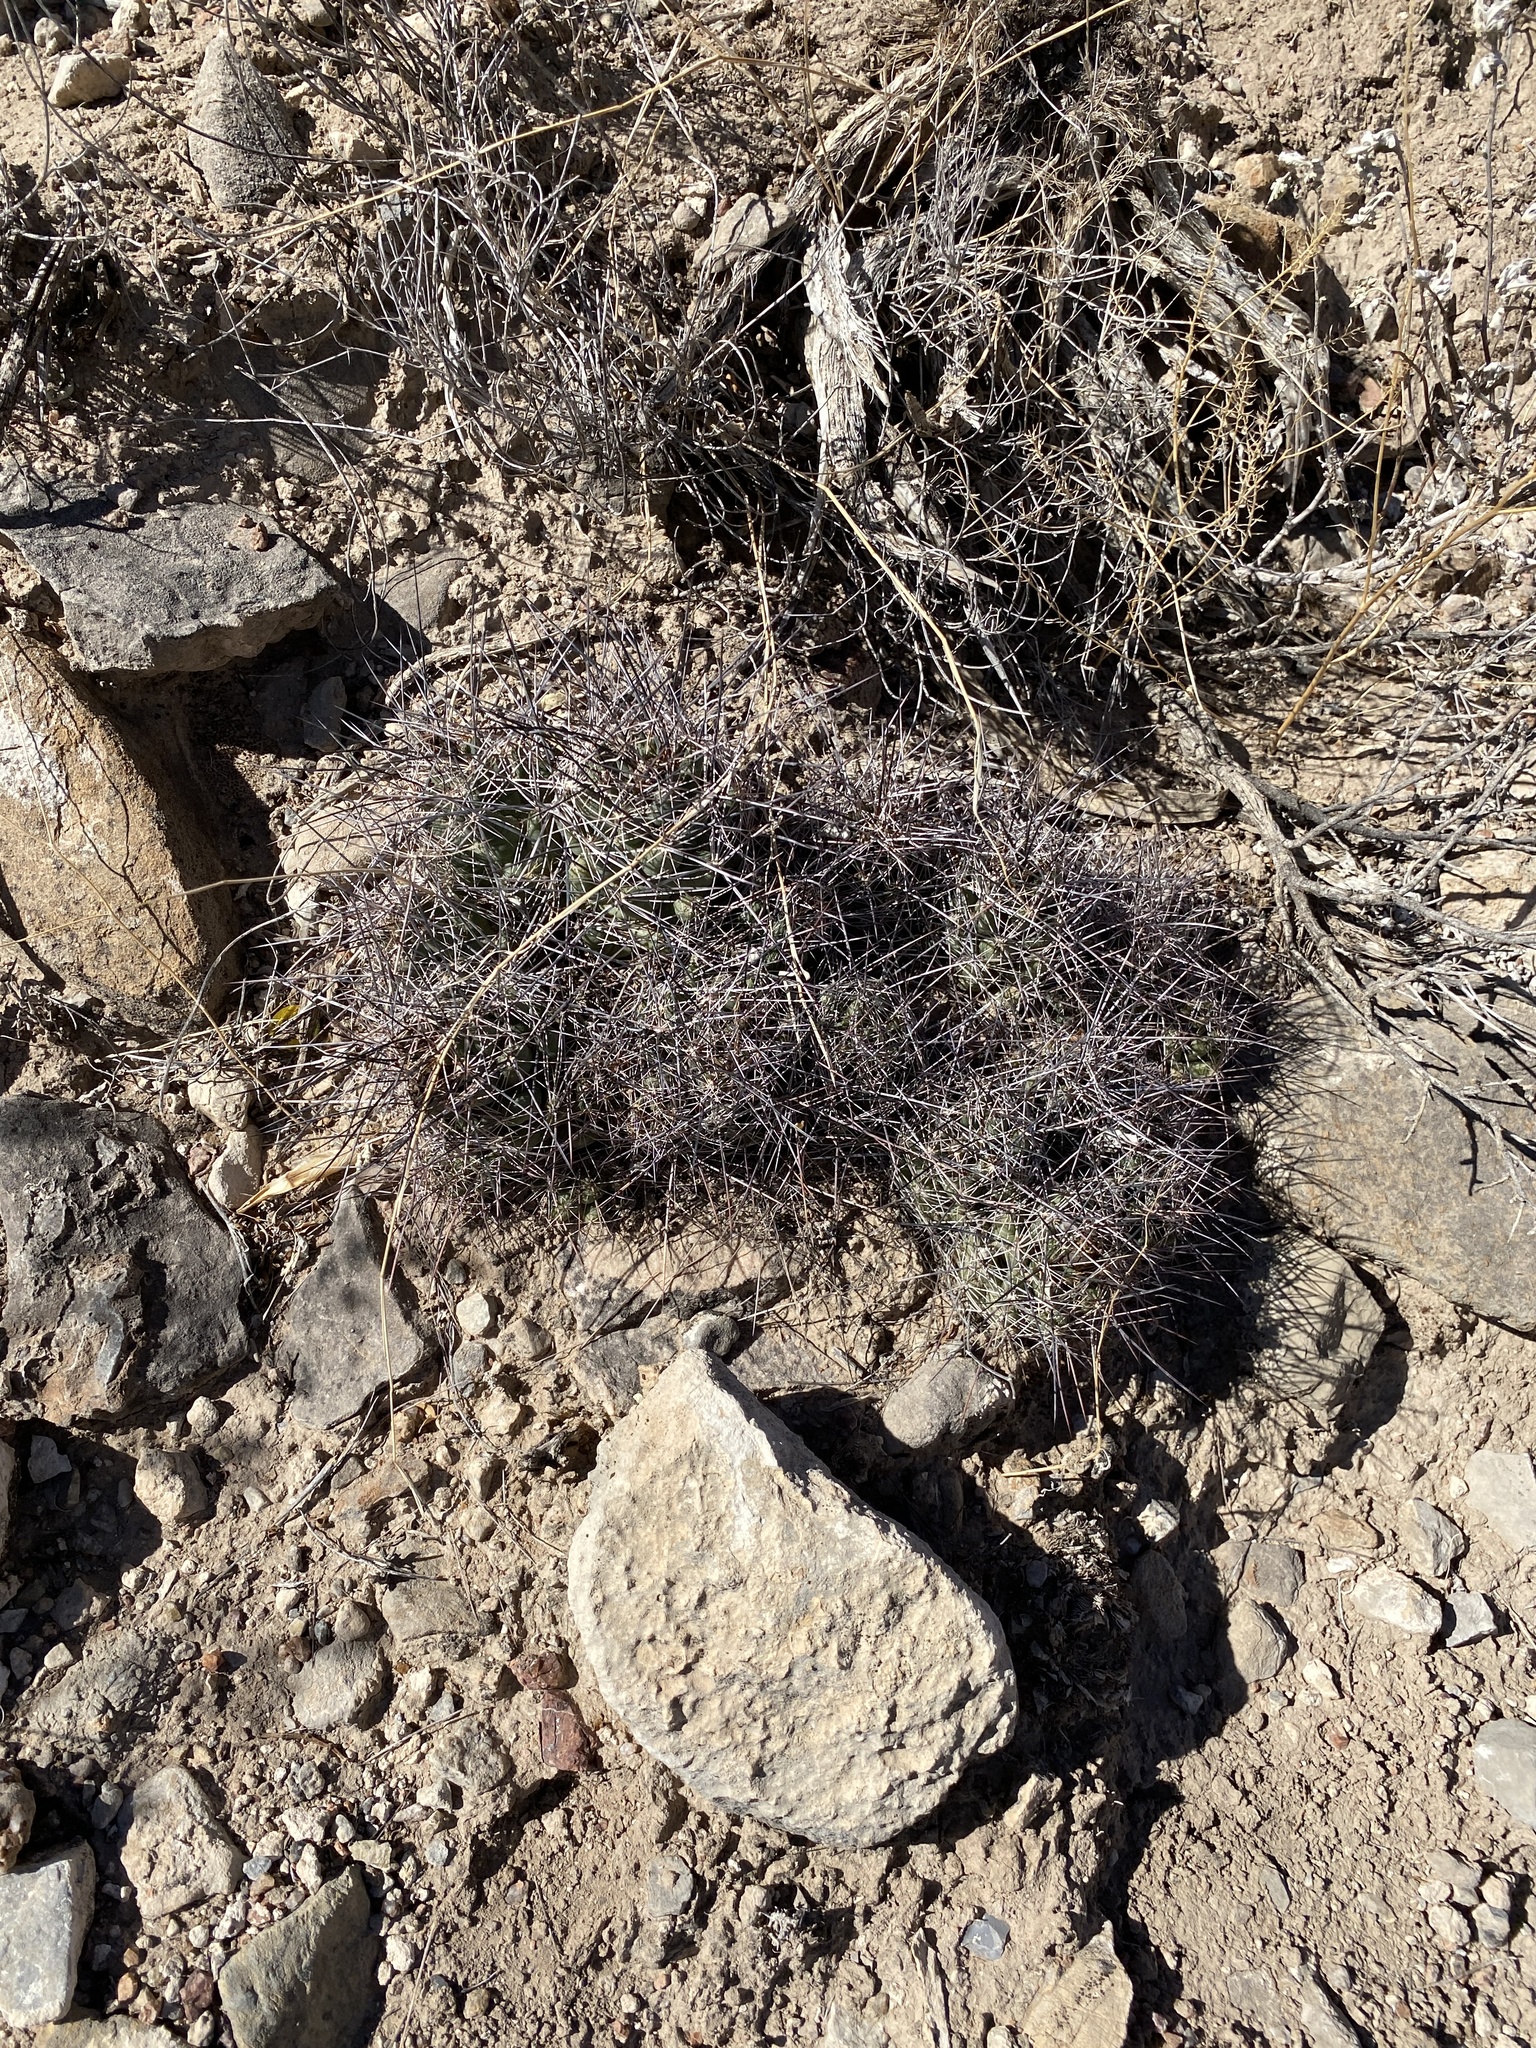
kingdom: Plantae
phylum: Tracheophyta
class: Magnoliopsida
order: Caryophyllales
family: Cactaceae
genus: Coryphantha
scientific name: Coryphantha macromeris
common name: Nipple beehive cactus
